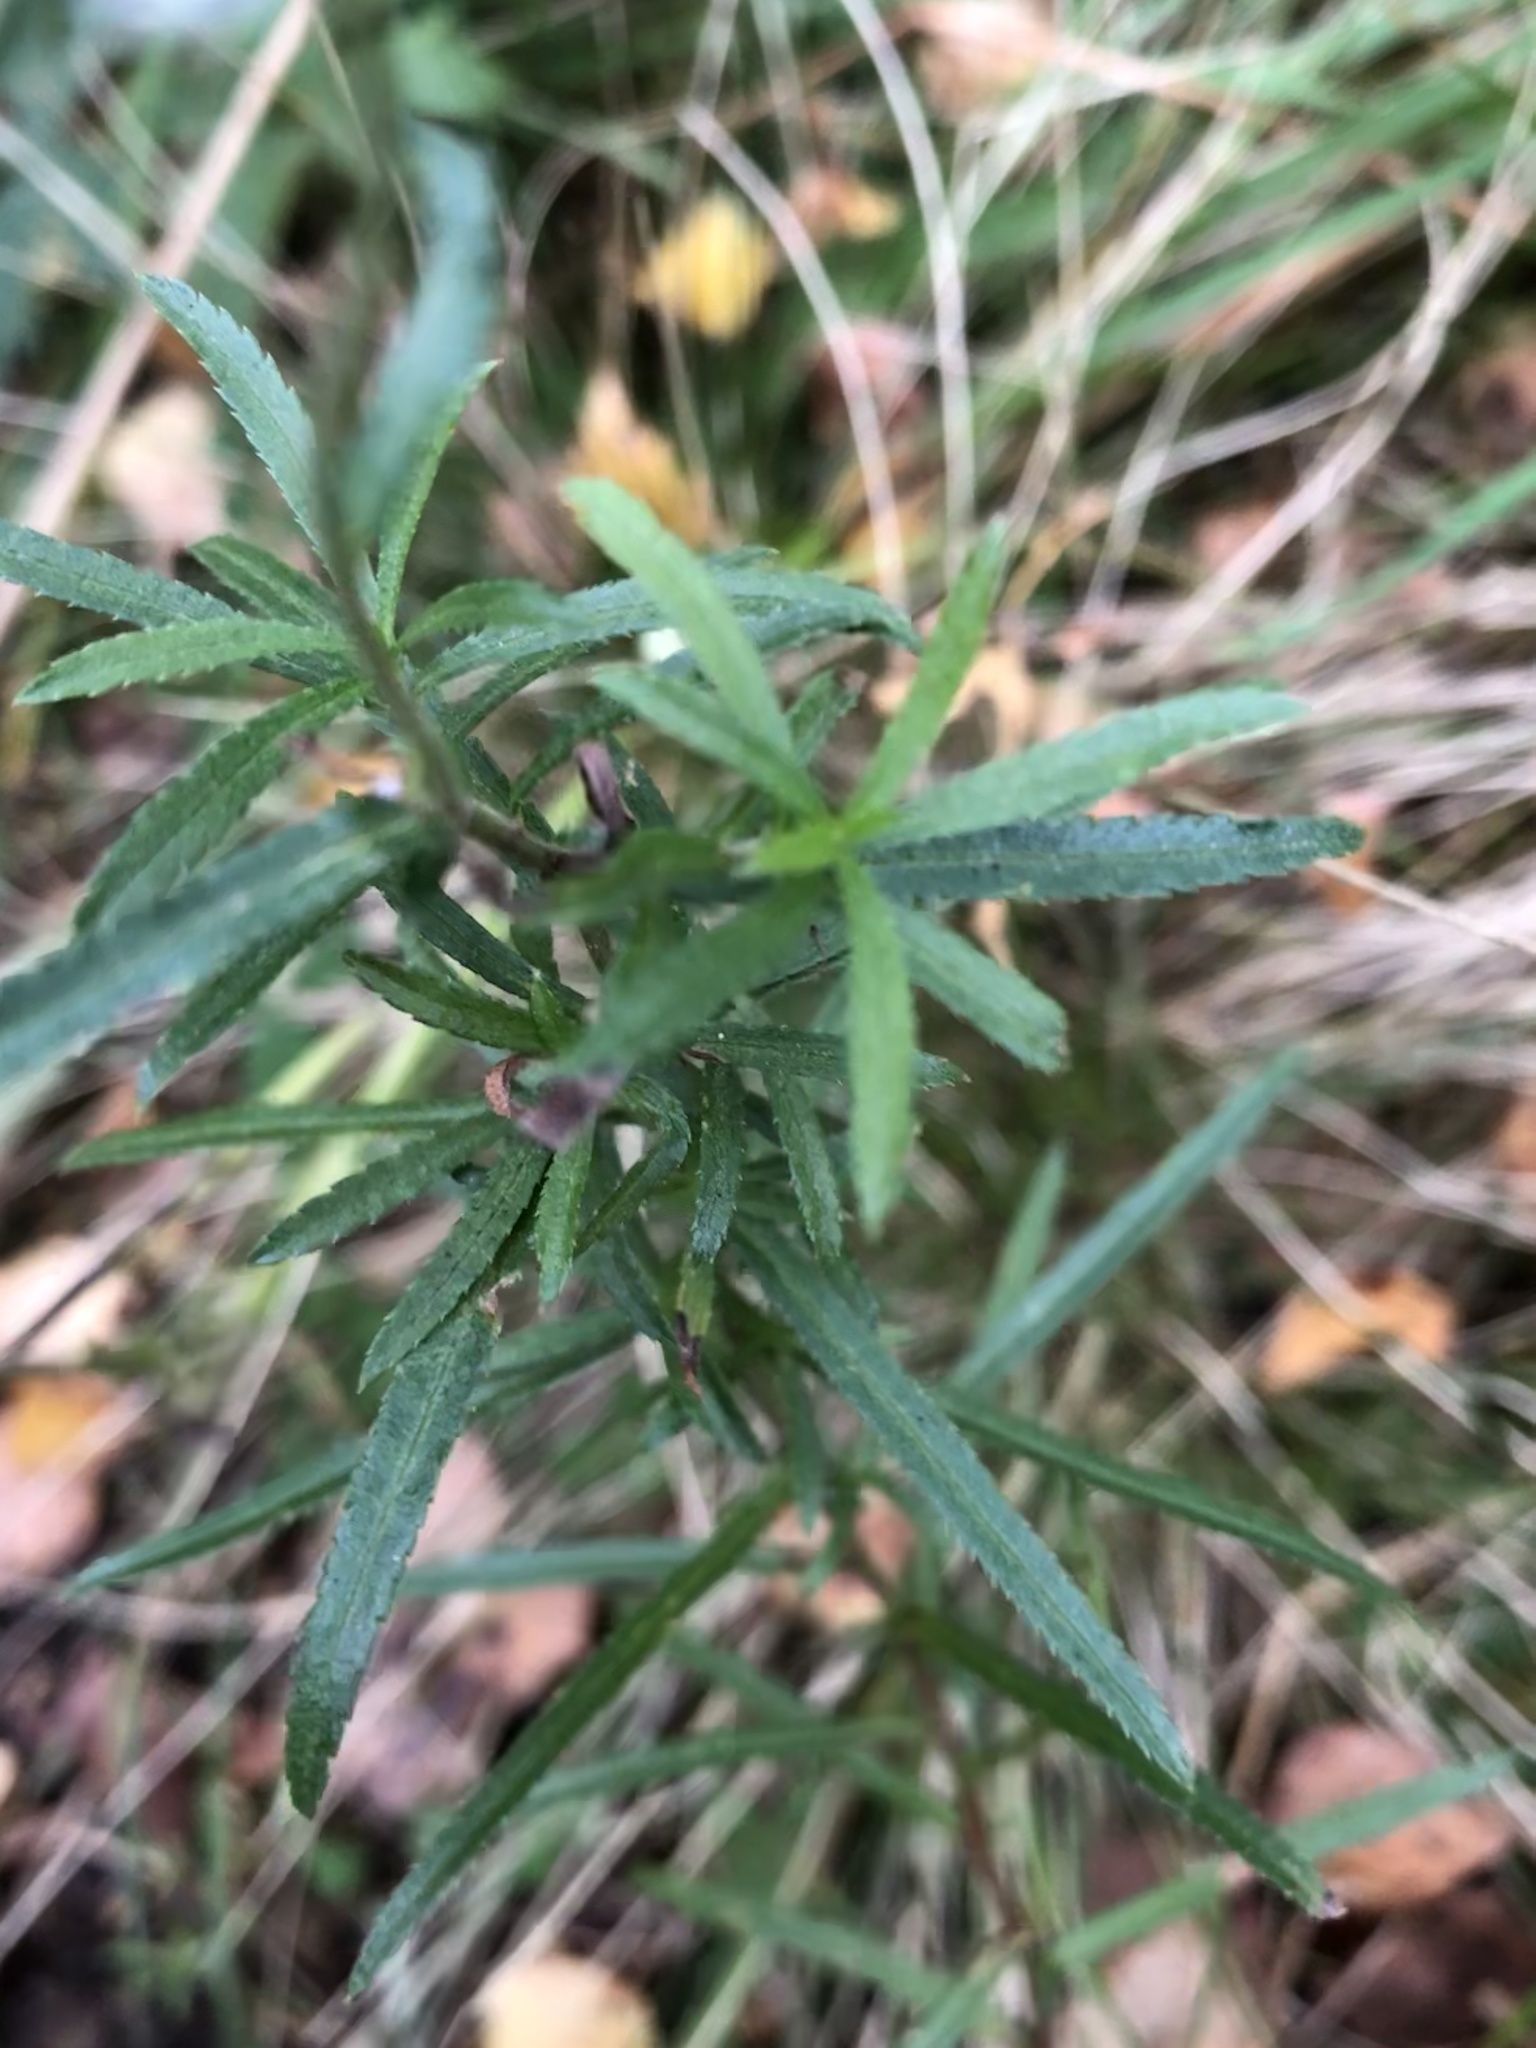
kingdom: Plantae
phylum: Tracheophyta
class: Magnoliopsida
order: Asterales
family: Asteraceae
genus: Achillea
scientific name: Achillea ptarmica
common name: Sneezeweed
